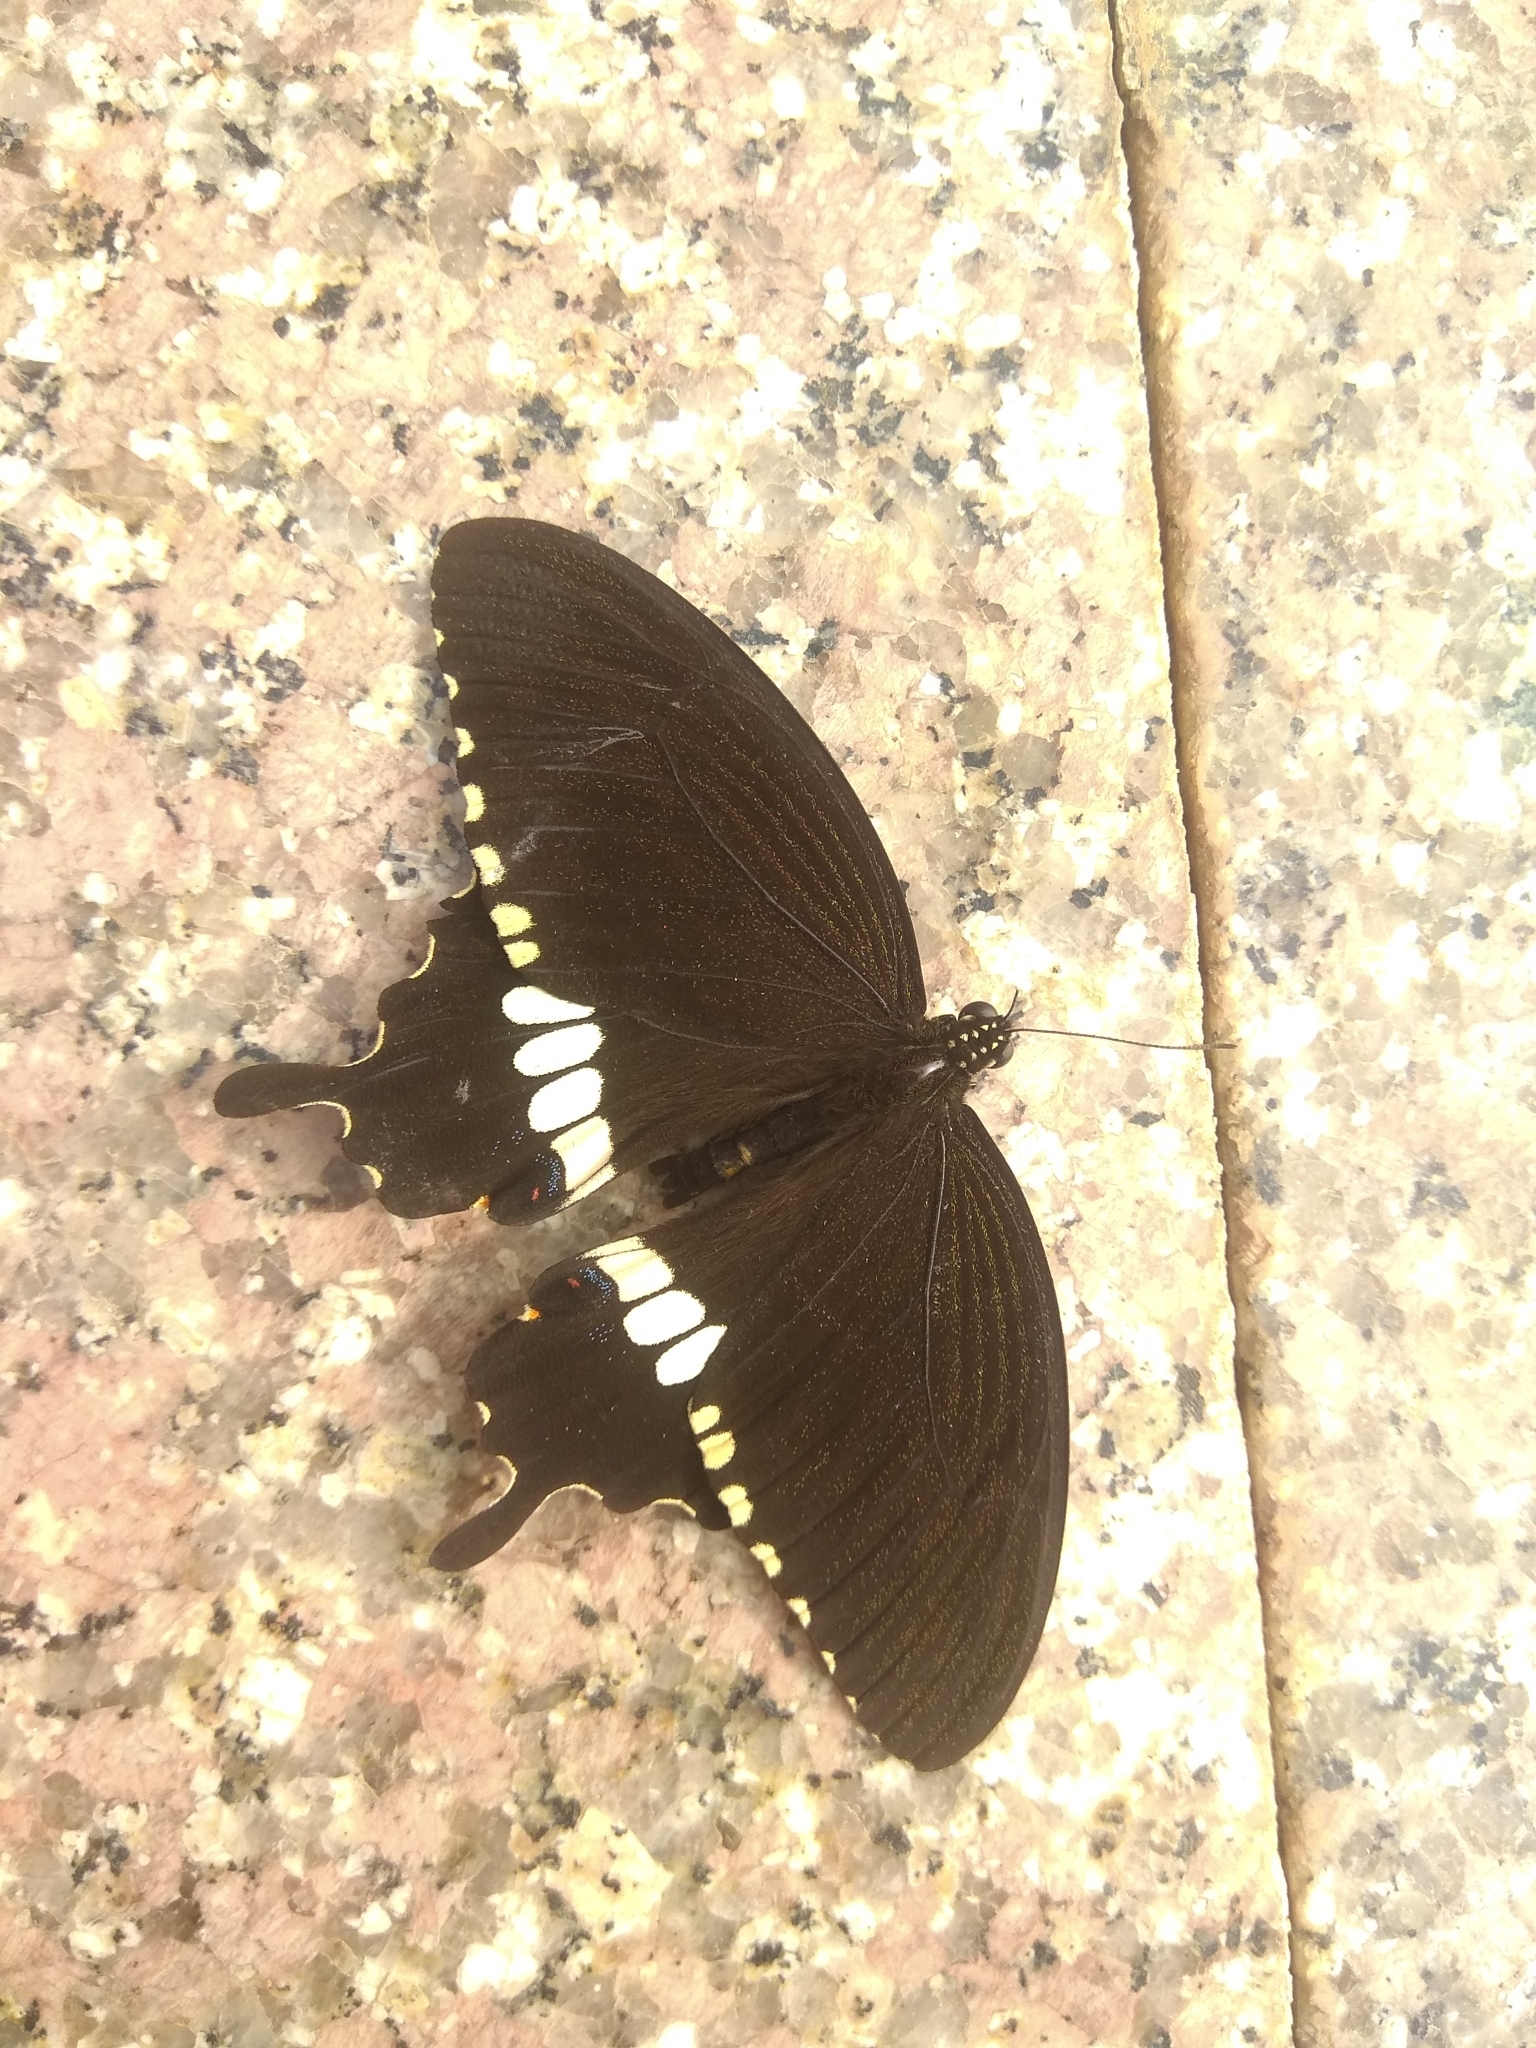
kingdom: Animalia
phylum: Arthropoda
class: Insecta
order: Lepidoptera
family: Papilionidae
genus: Papilio
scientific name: Papilio polytes
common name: Common mormon
